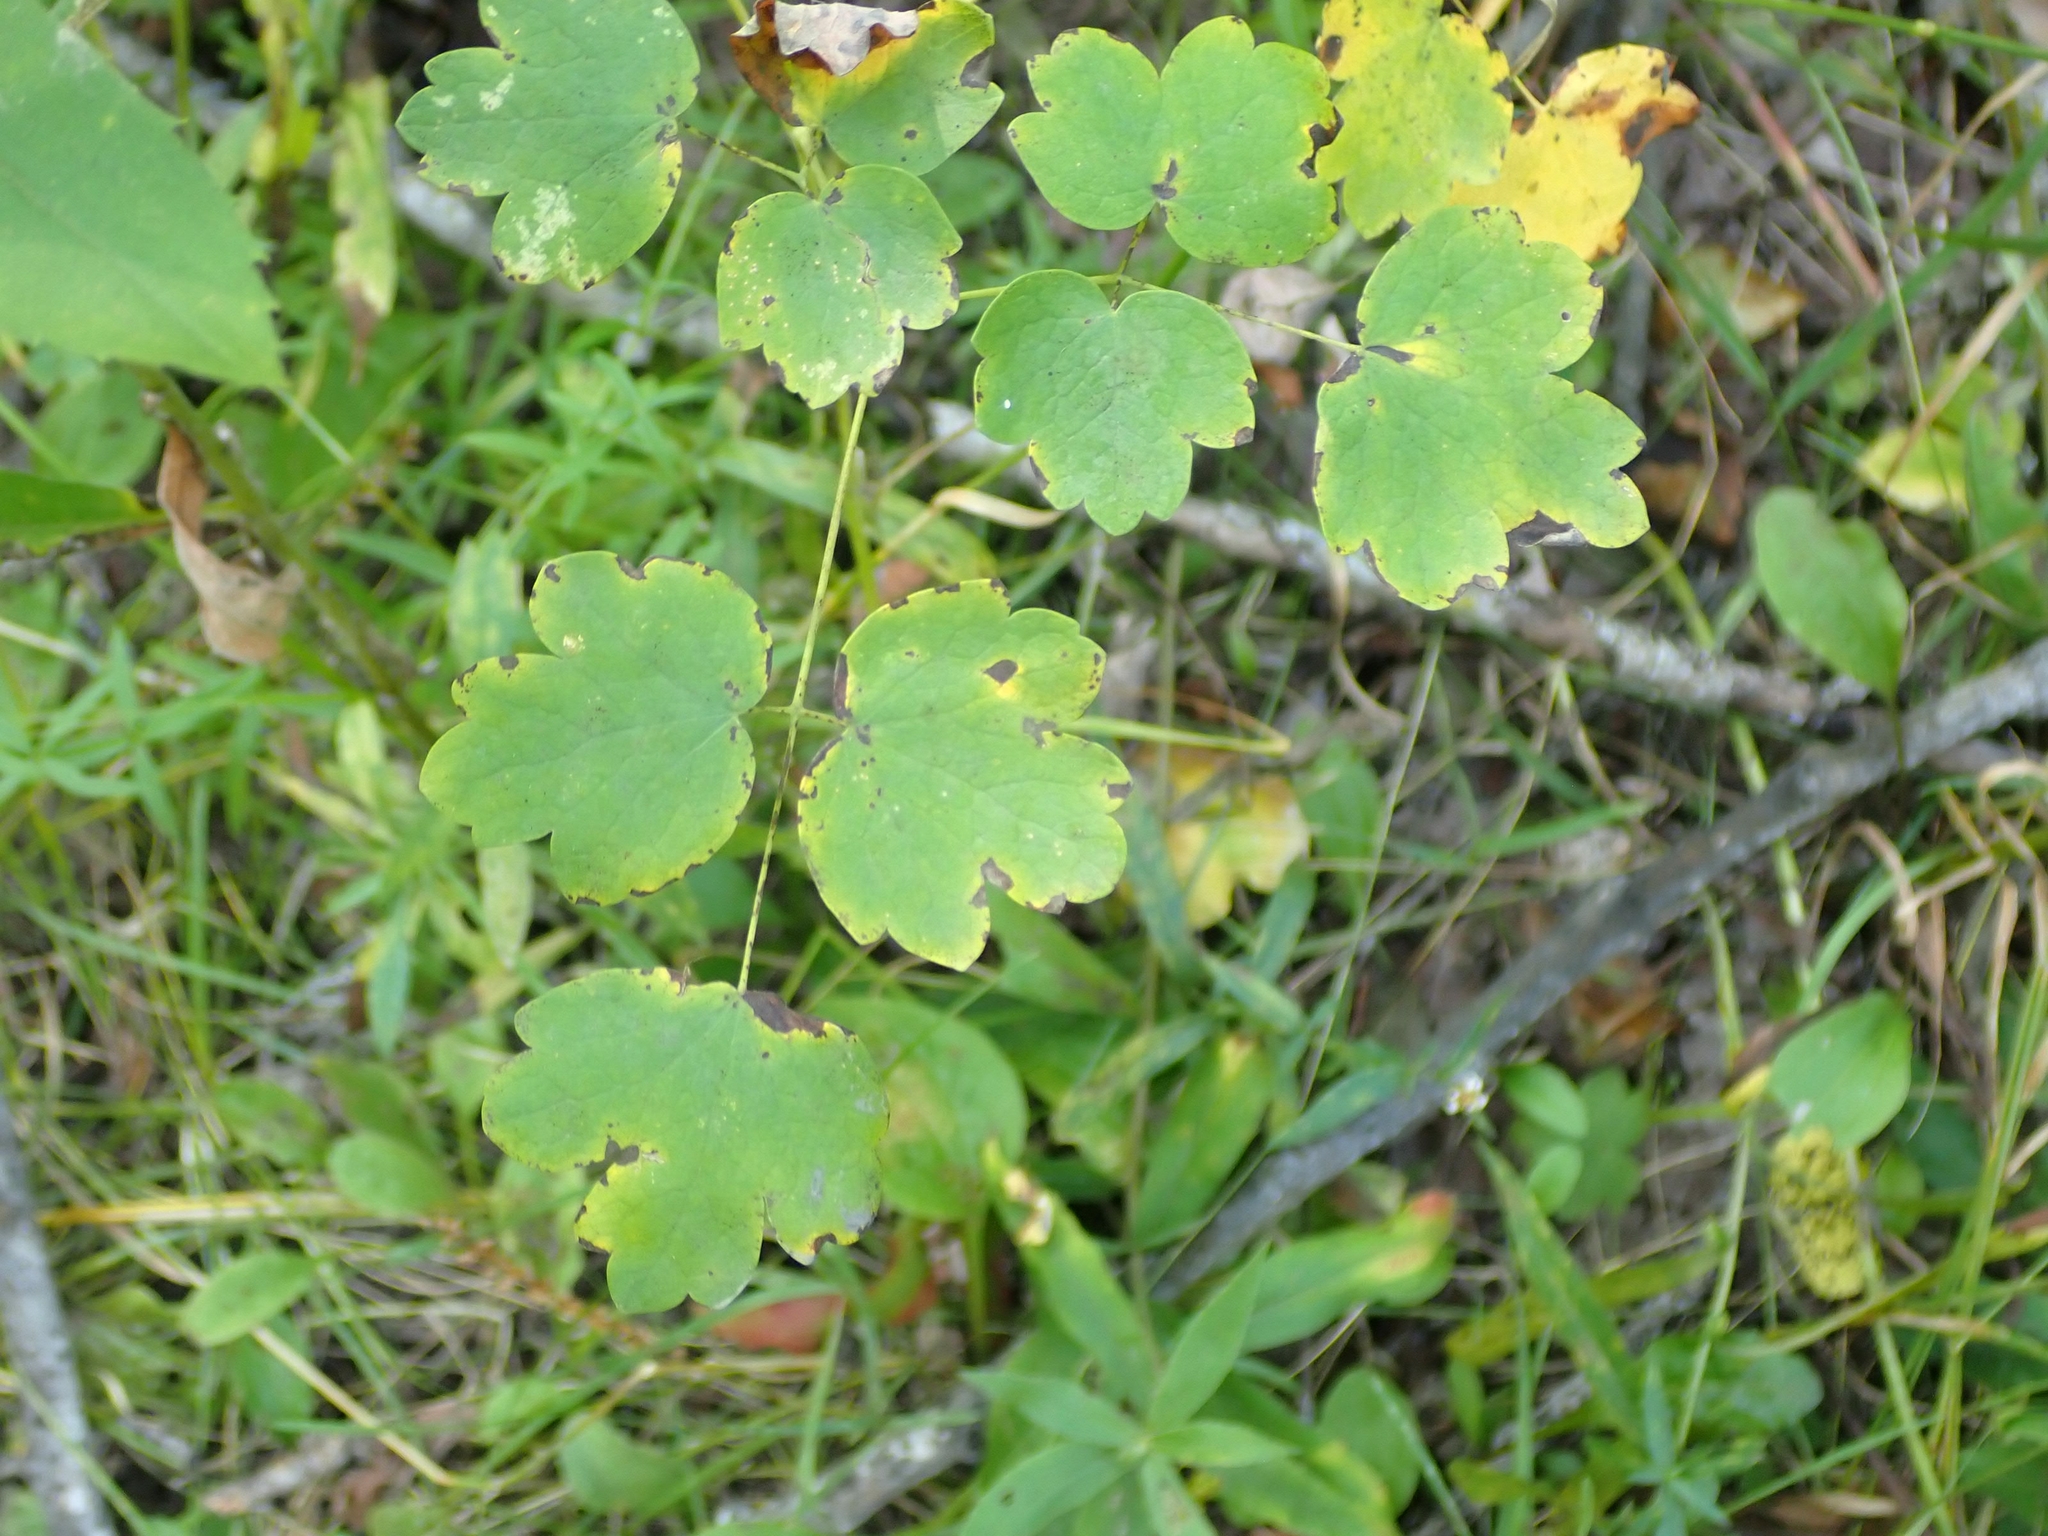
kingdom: Plantae
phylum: Tracheophyta
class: Magnoliopsida
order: Ranunculales
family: Ranunculaceae
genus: Thalictrum
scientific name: Thalictrum venulosum
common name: Early meadow-rue
